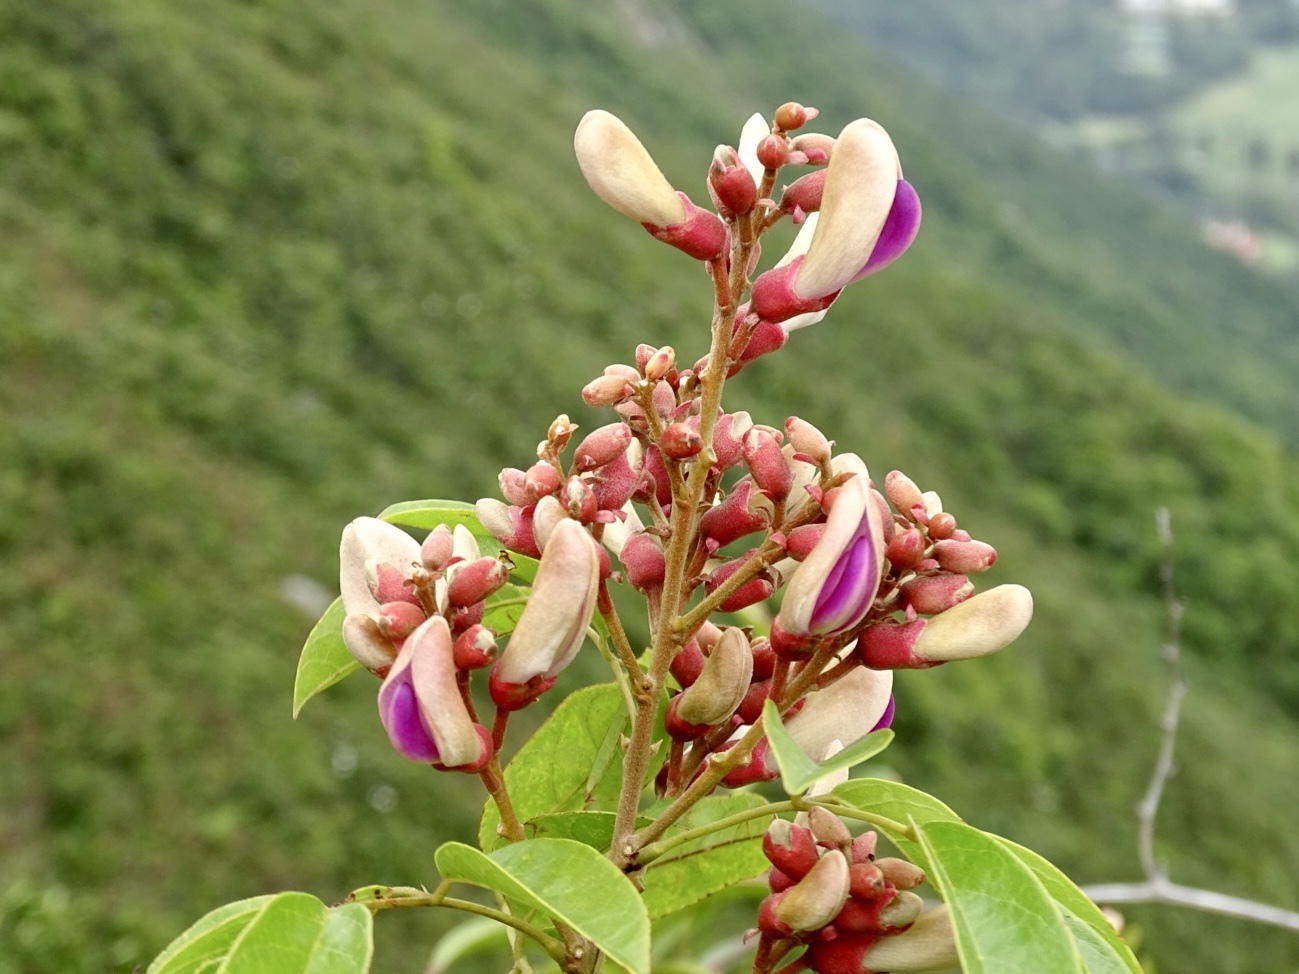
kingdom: Plantae
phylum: Tracheophyta
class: Magnoliopsida
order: Fabales
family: Fabaceae
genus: Callerya
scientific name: Callerya nitida
